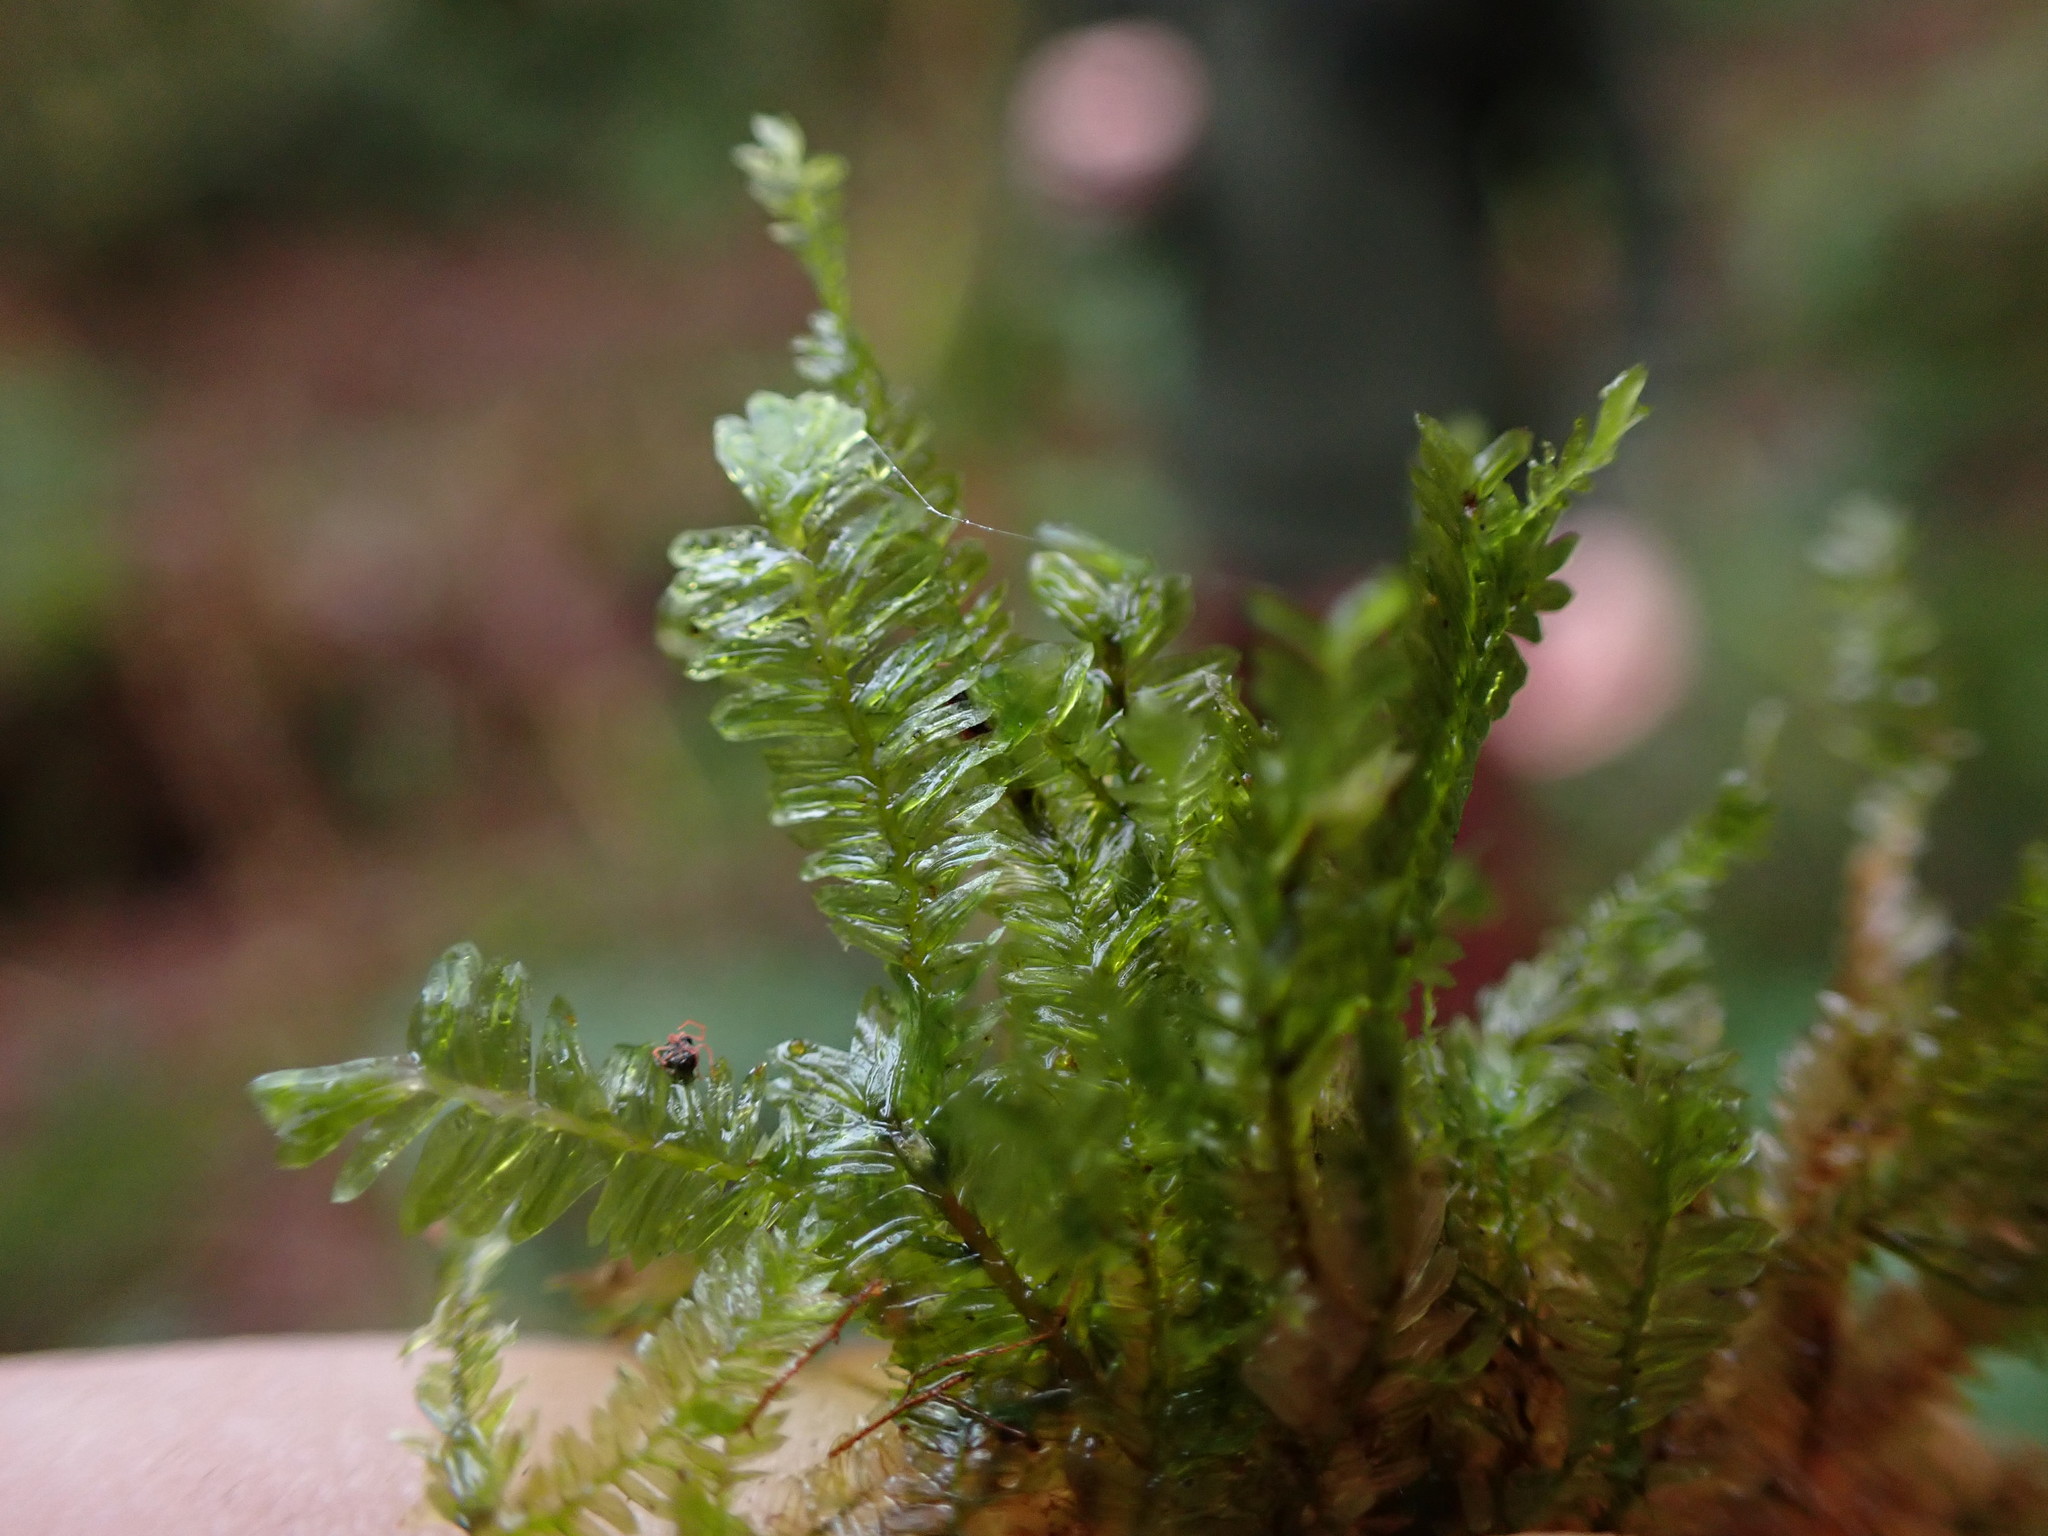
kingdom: Plantae
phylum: Bryophyta
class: Bryopsida
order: Hypnales
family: Neckeraceae
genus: Dannorrisia
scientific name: Dannorrisia bigelovii
